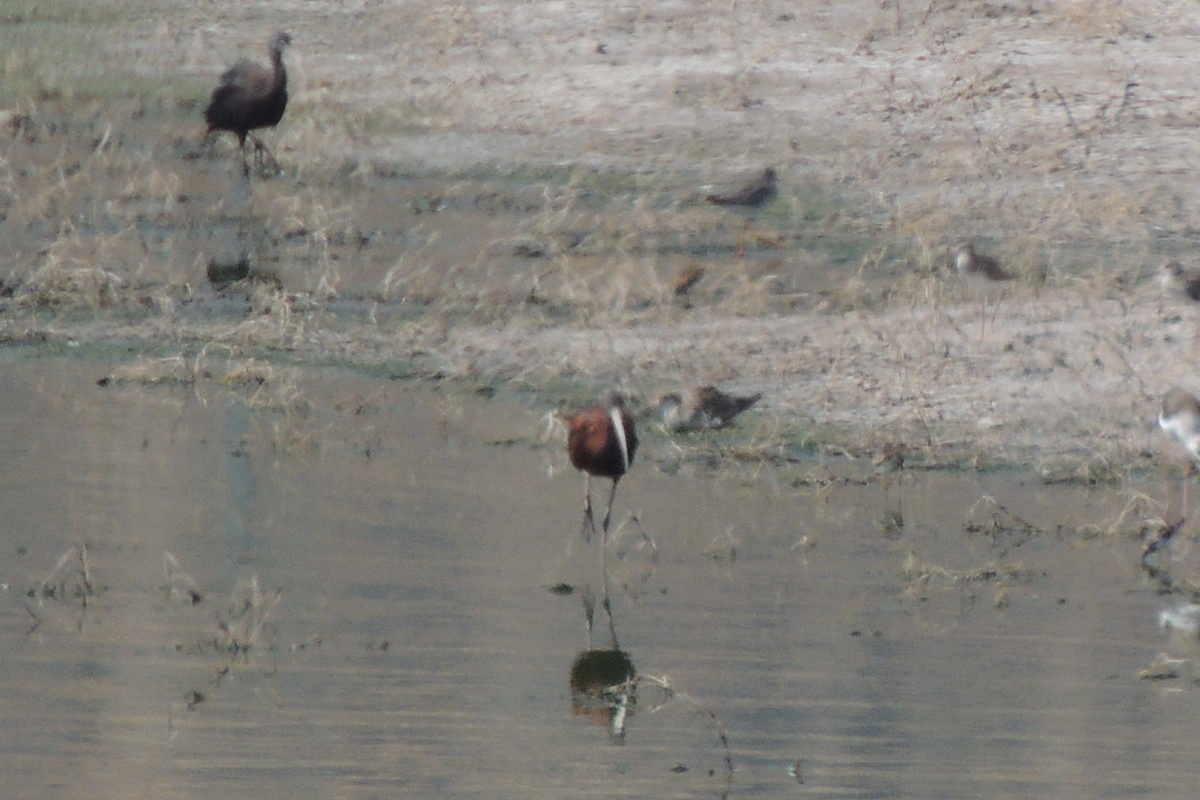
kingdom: Animalia
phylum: Chordata
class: Aves
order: Pelecaniformes
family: Threskiornithidae
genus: Plegadis
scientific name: Plegadis falcinellus
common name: Glossy ibis
